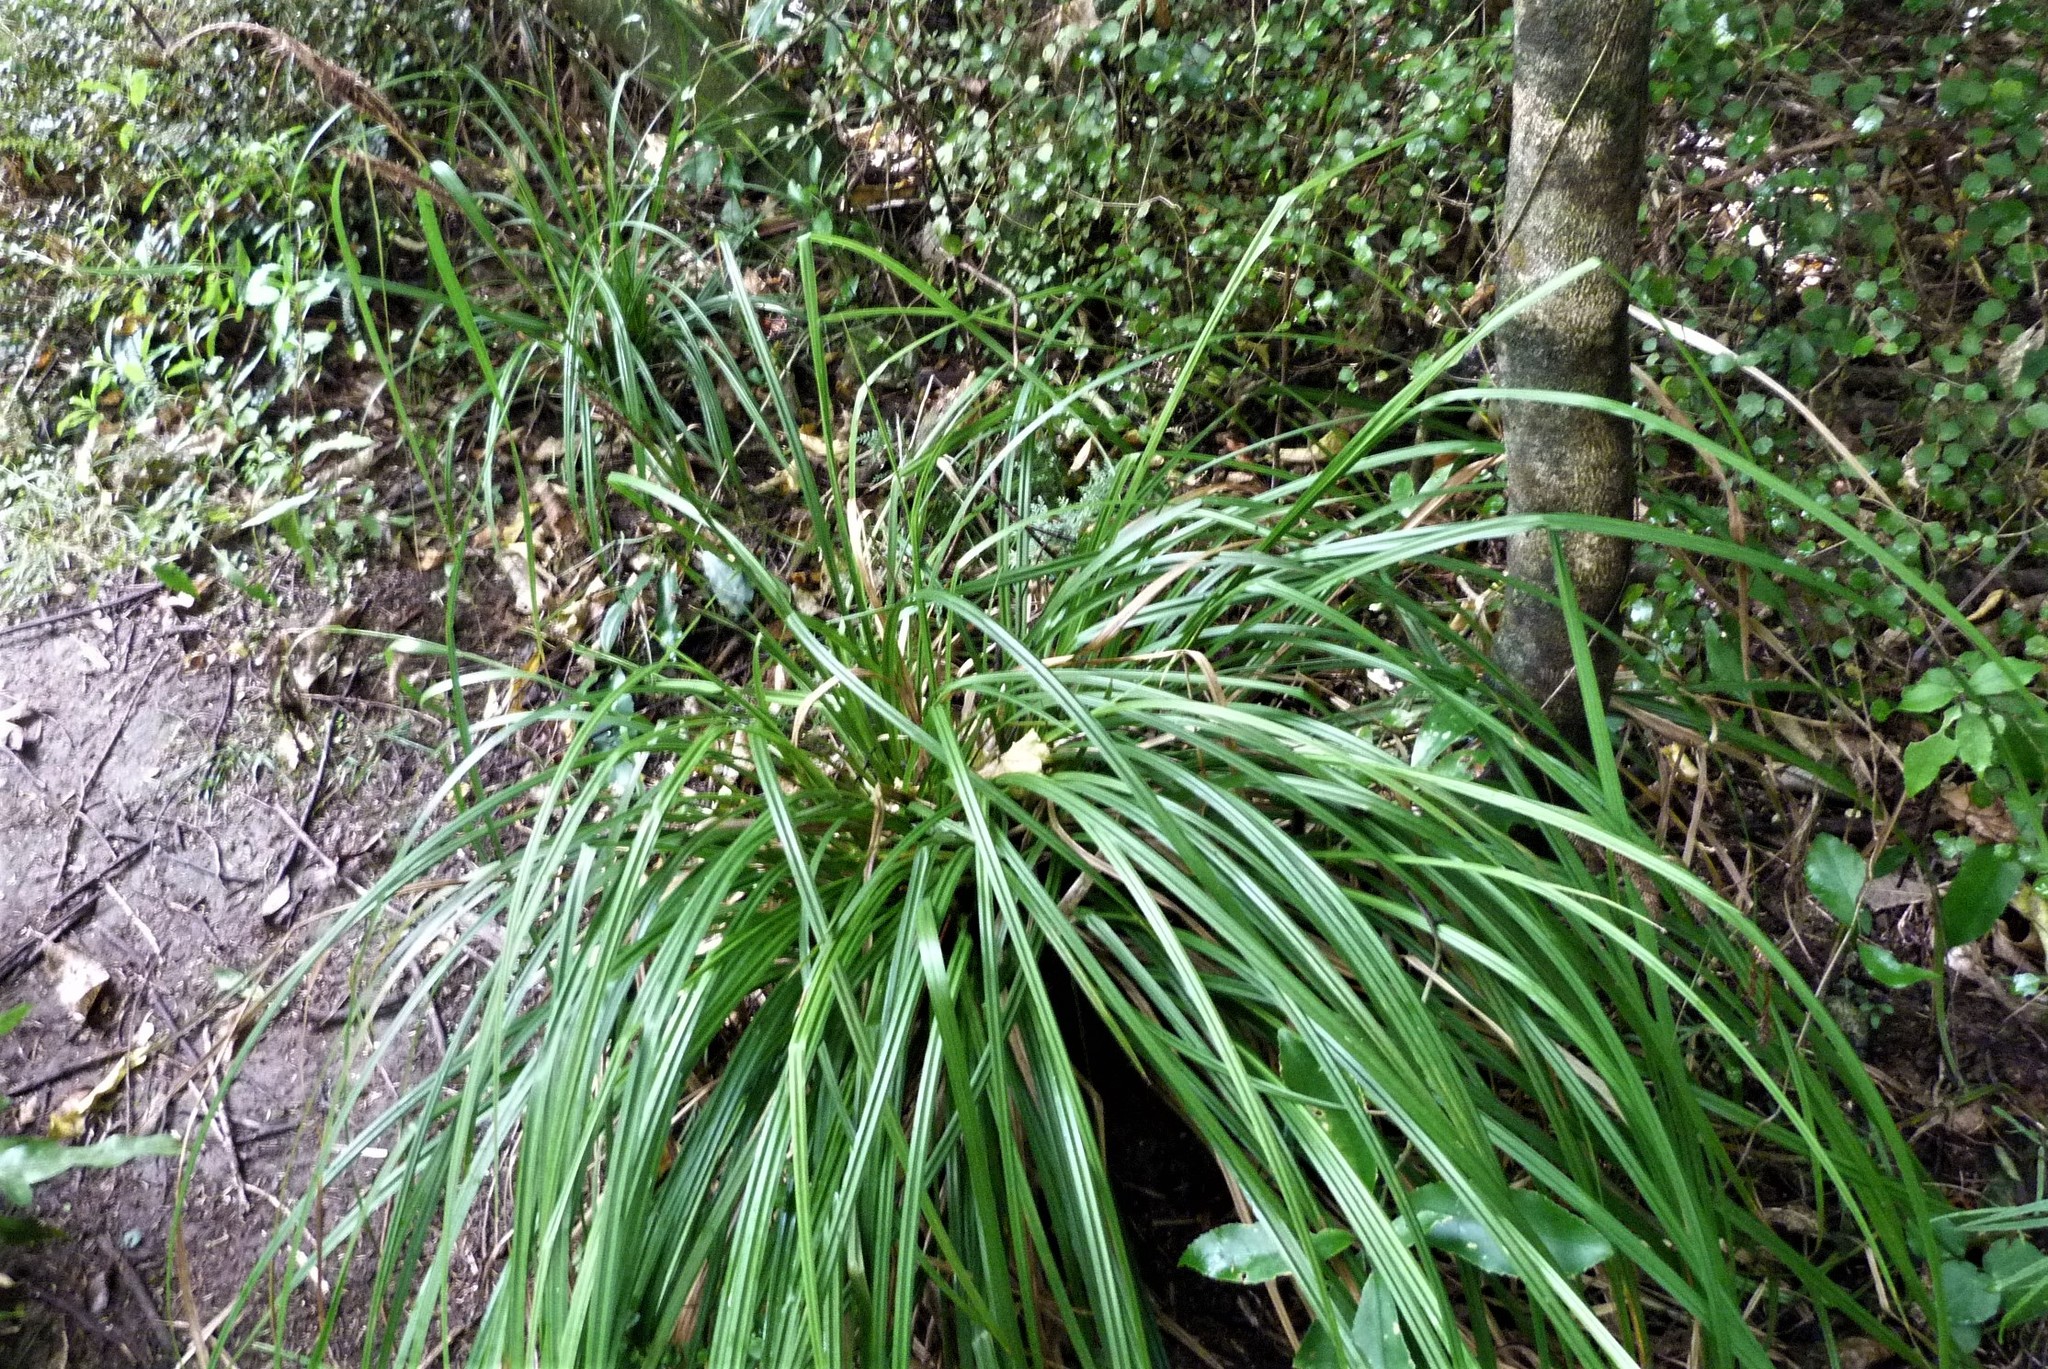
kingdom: Plantae
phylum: Tracheophyta
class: Liliopsida
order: Poales
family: Cyperaceae
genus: Carex
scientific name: Carex forsteri
